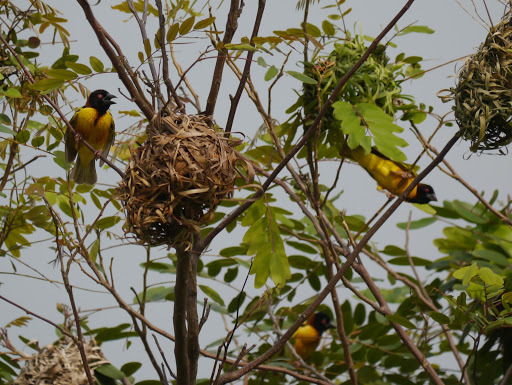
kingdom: Animalia
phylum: Chordata
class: Aves
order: Passeriformes
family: Ploceidae
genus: Ploceus
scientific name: Ploceus cucullatus
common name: Village weaver
